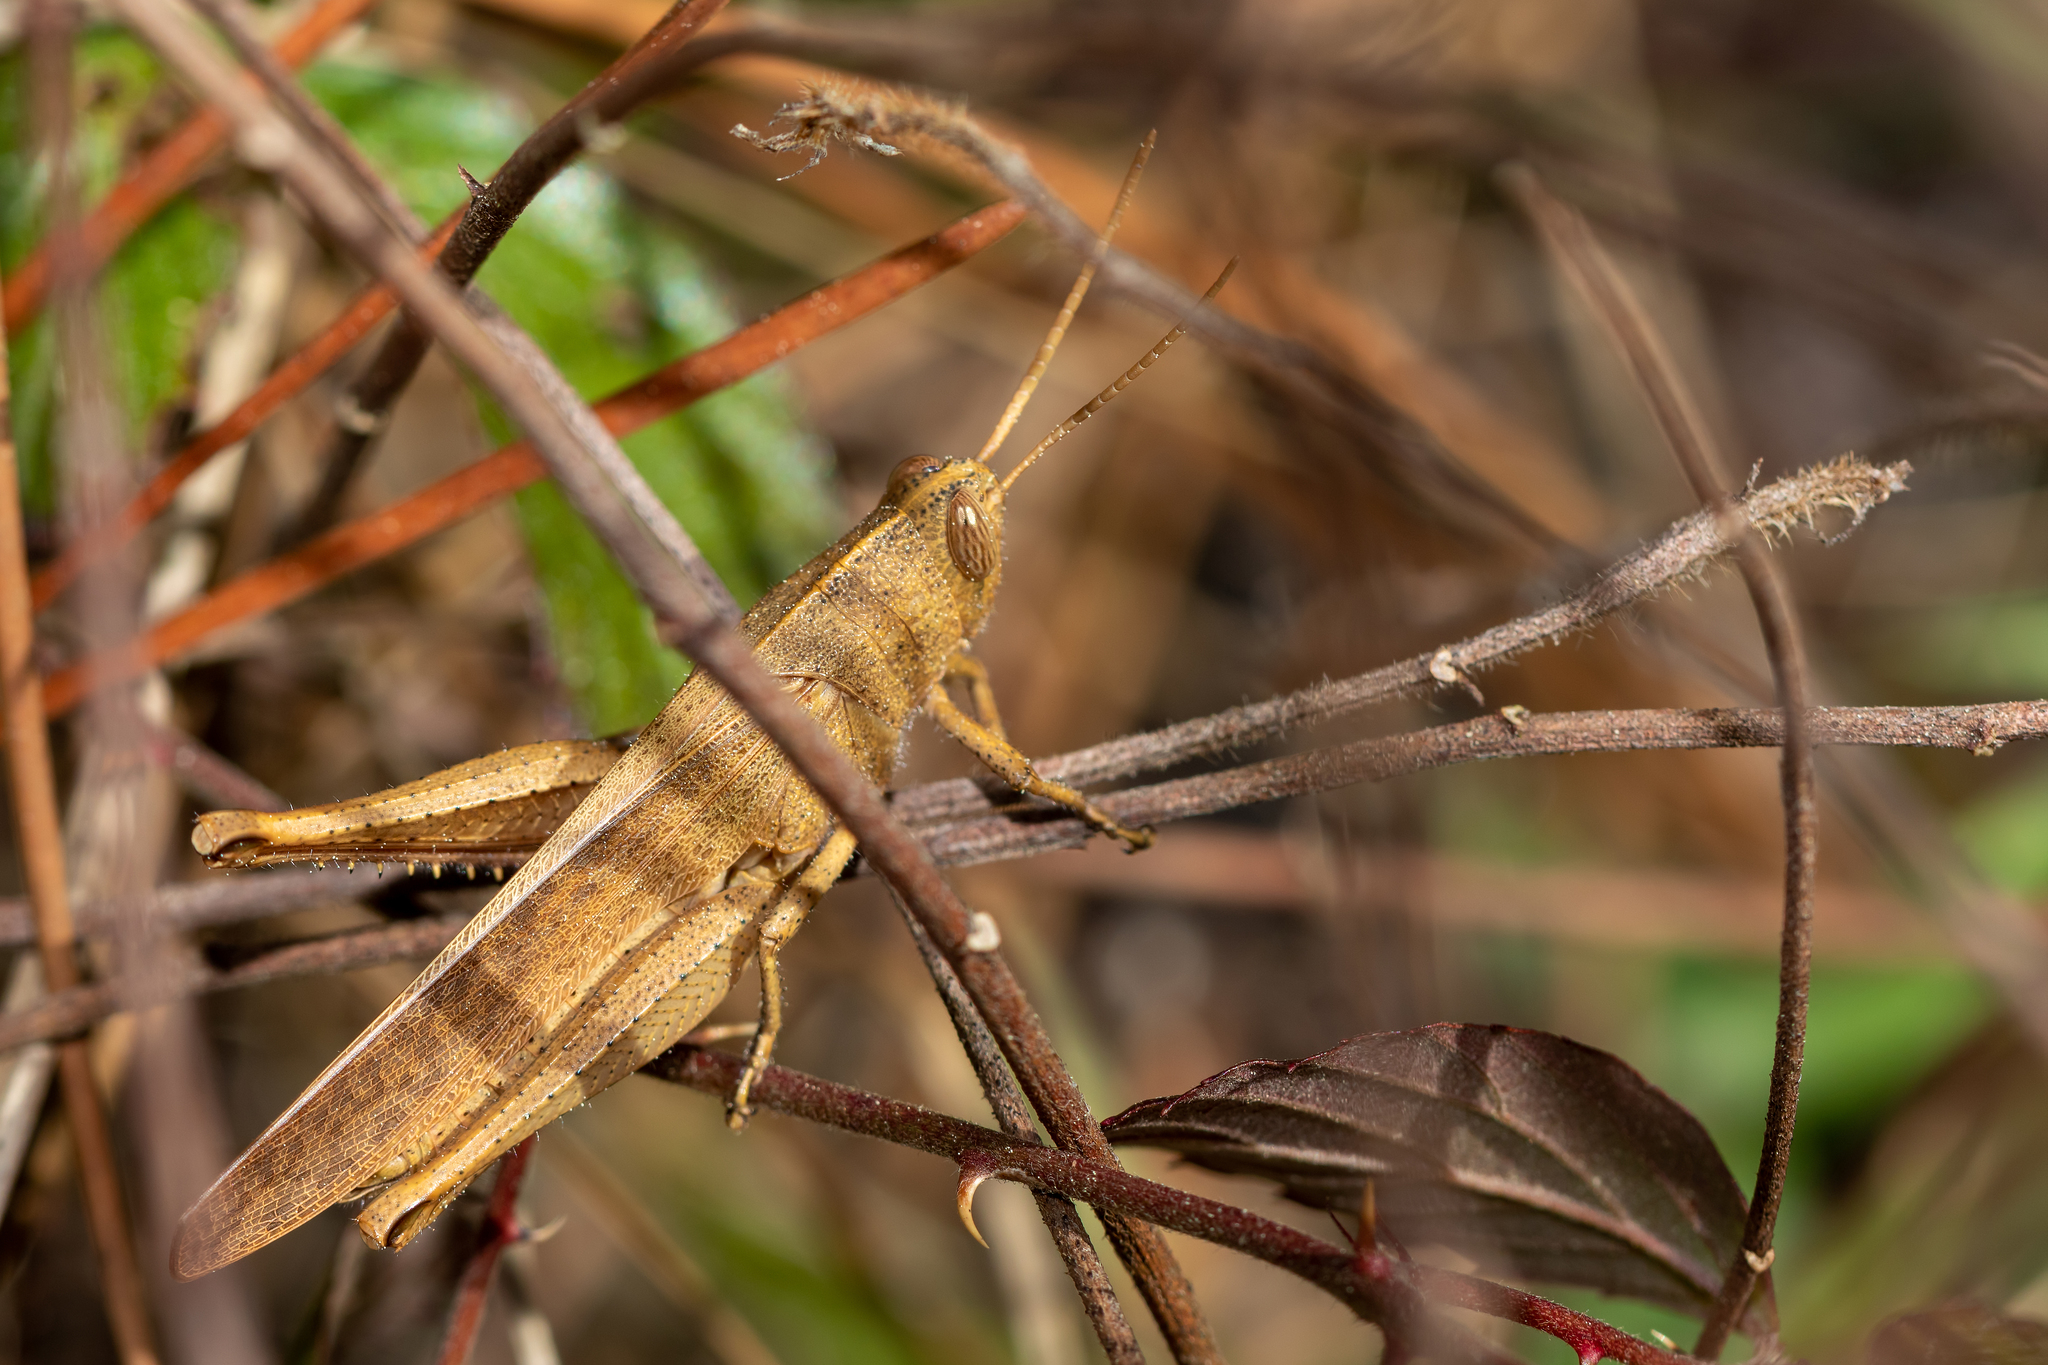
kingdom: Animalia
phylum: Arthropoda
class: Insecta
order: Orthoptera
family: Acrididae
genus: Schistocerca
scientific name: Schistocerca damnifica
